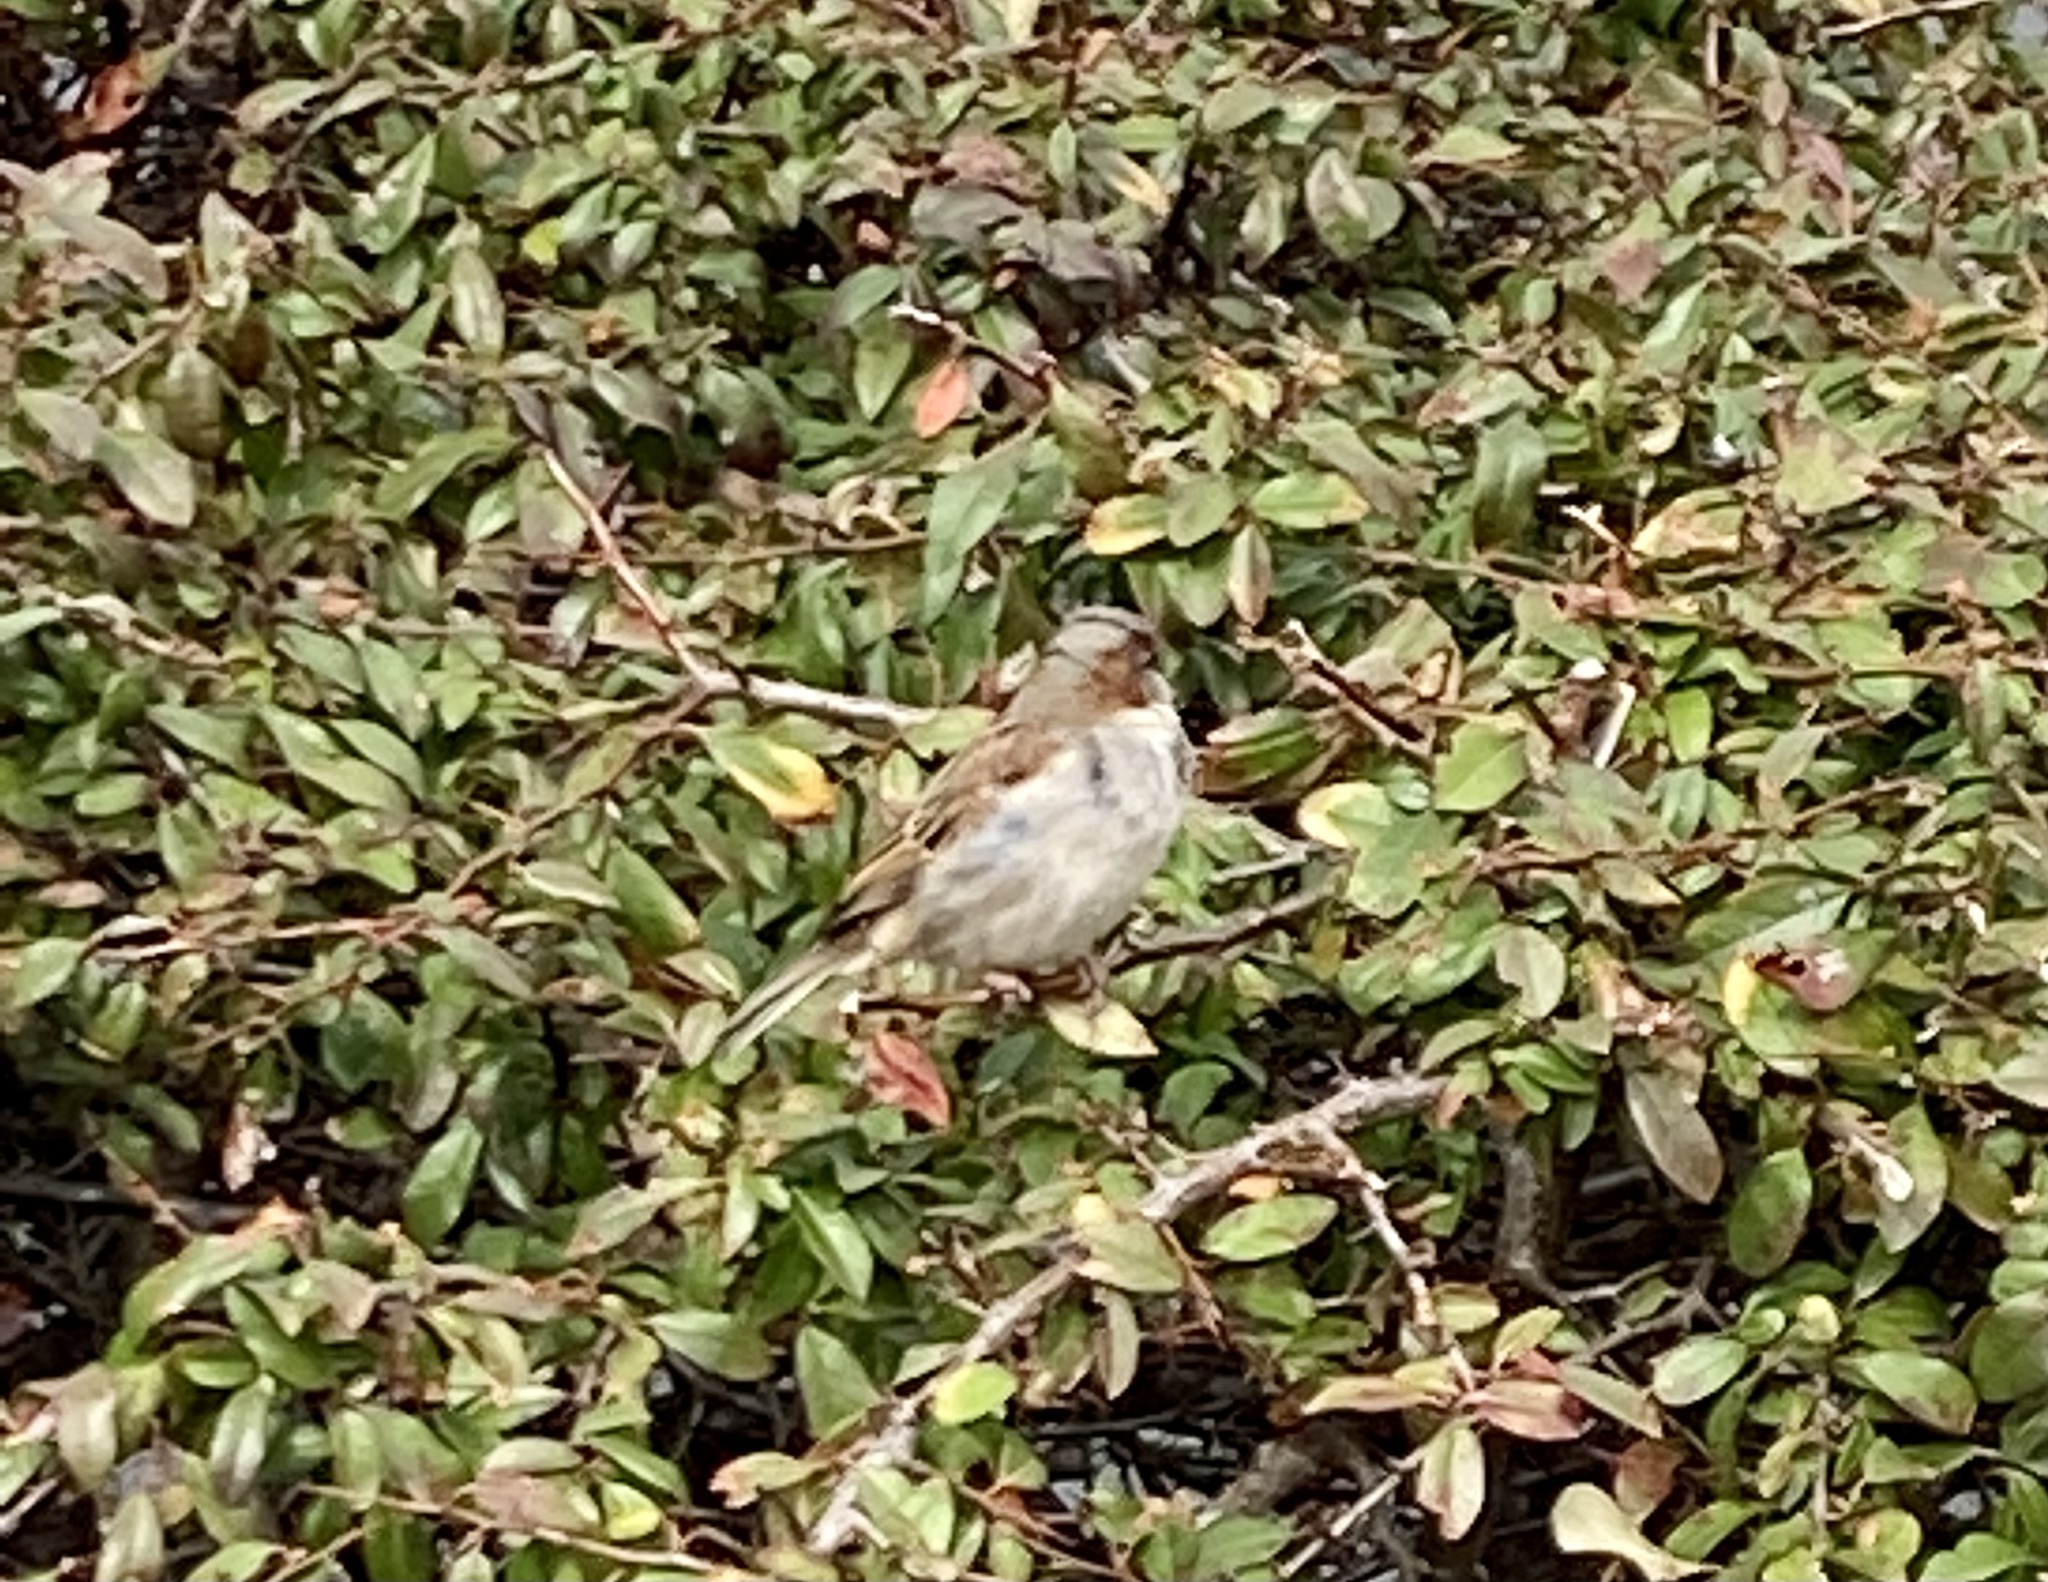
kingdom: Animalia
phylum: Chordata
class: Aves
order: Passeriformes
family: Passeridae
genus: Passer
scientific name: Passer domesticus
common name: House sparrow
